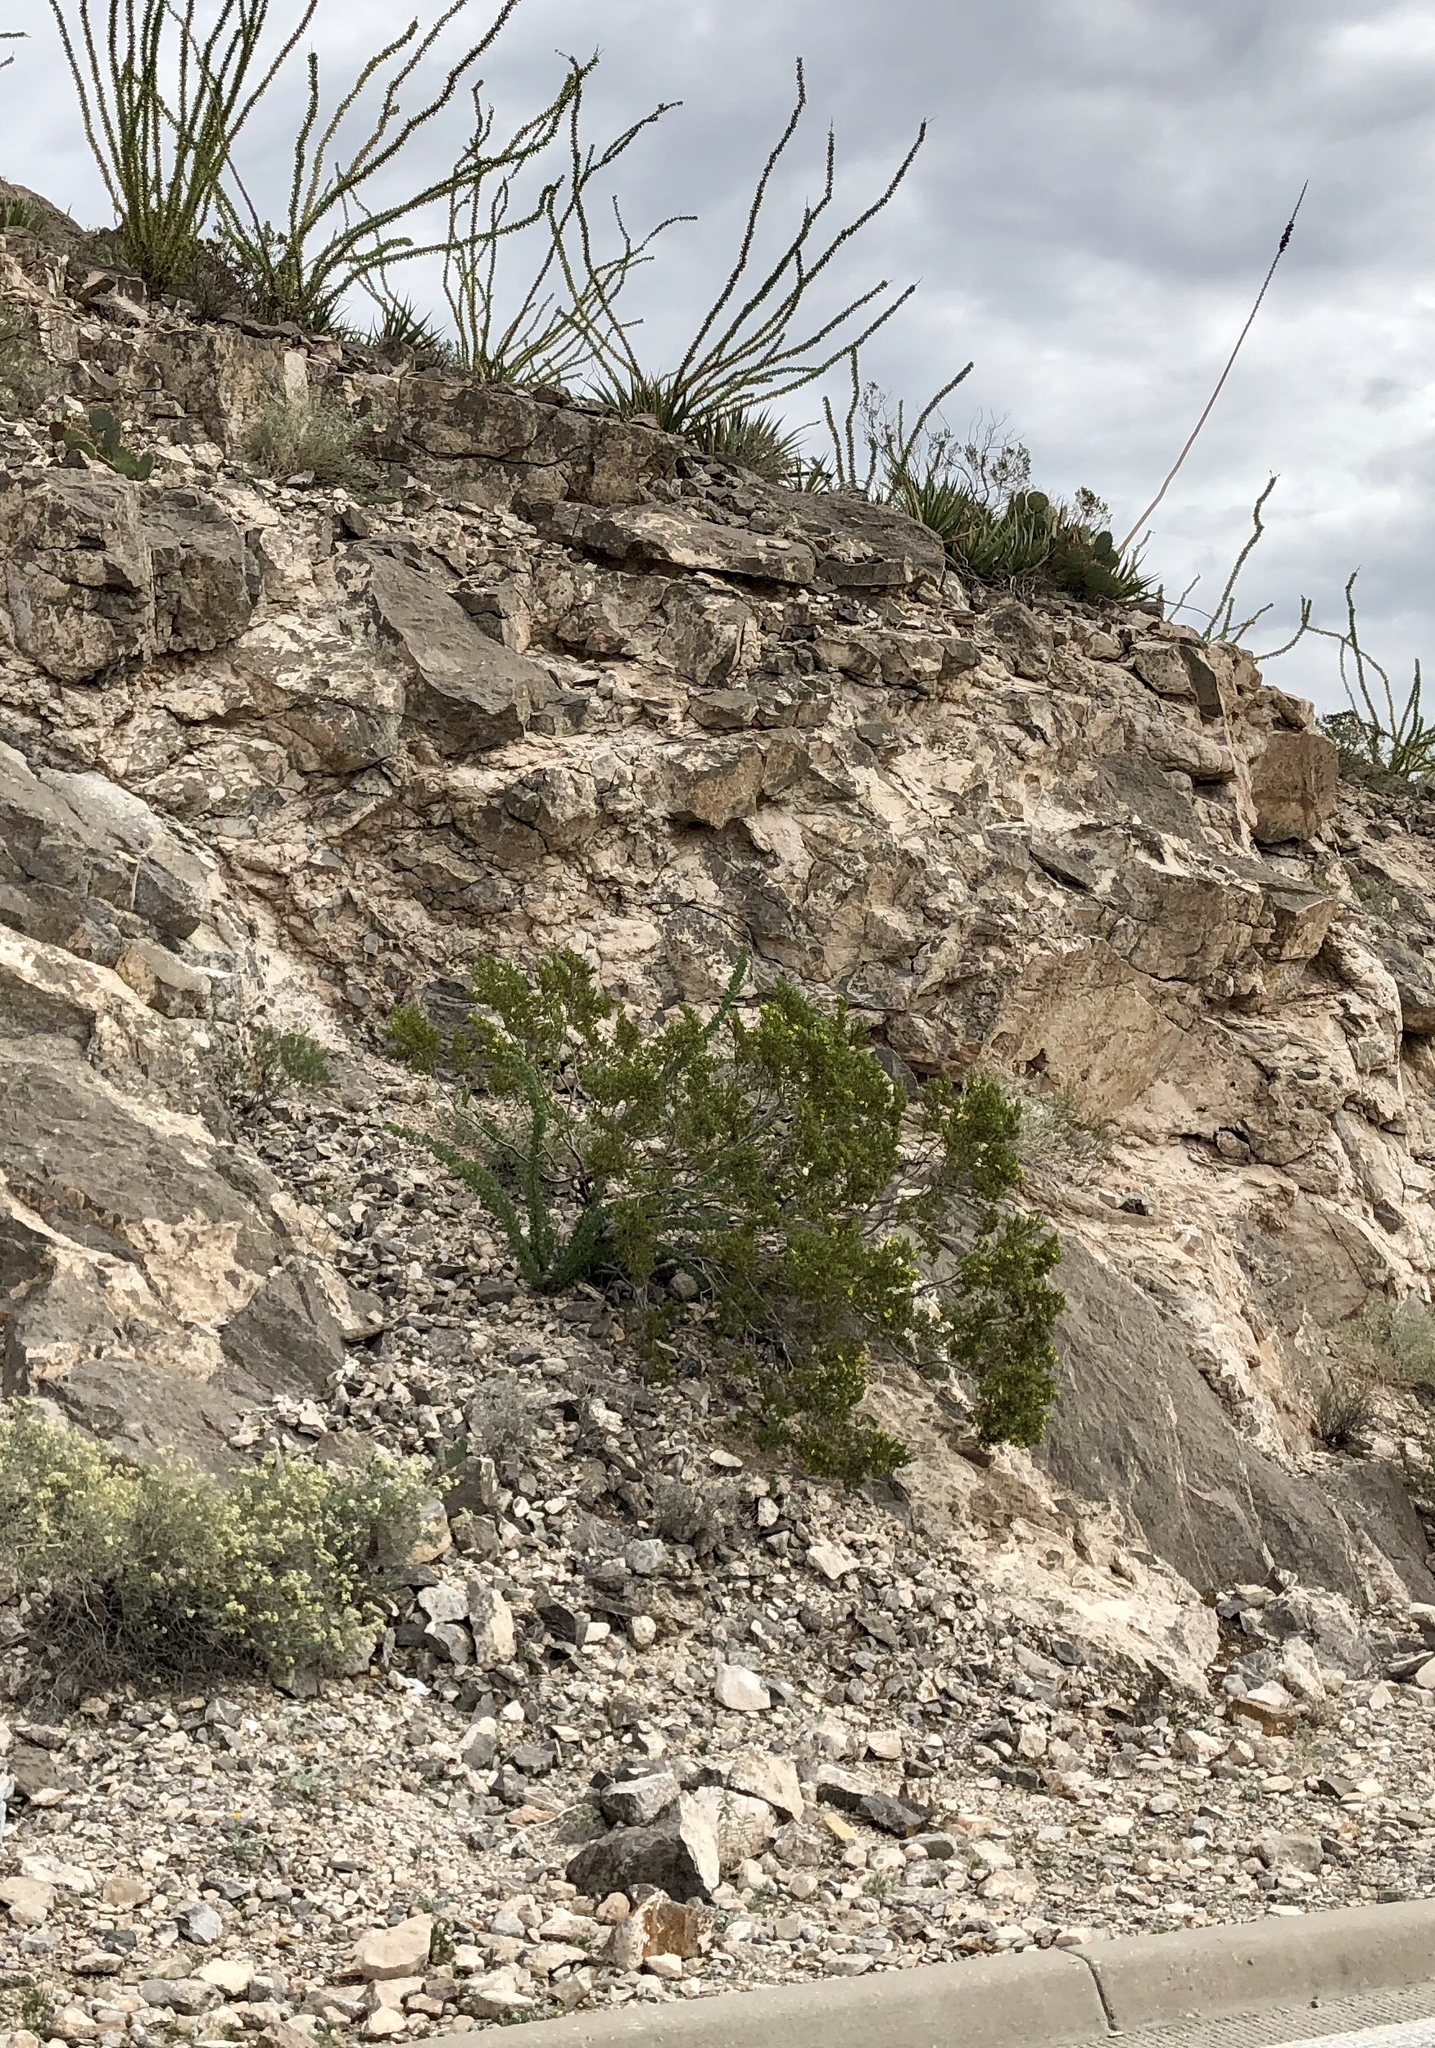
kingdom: Plantae
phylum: Tracheophyta
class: Magnoliopsida
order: Zygophyllales
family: Zygophyllaceae
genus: Larrea
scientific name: Larrea tridentata
